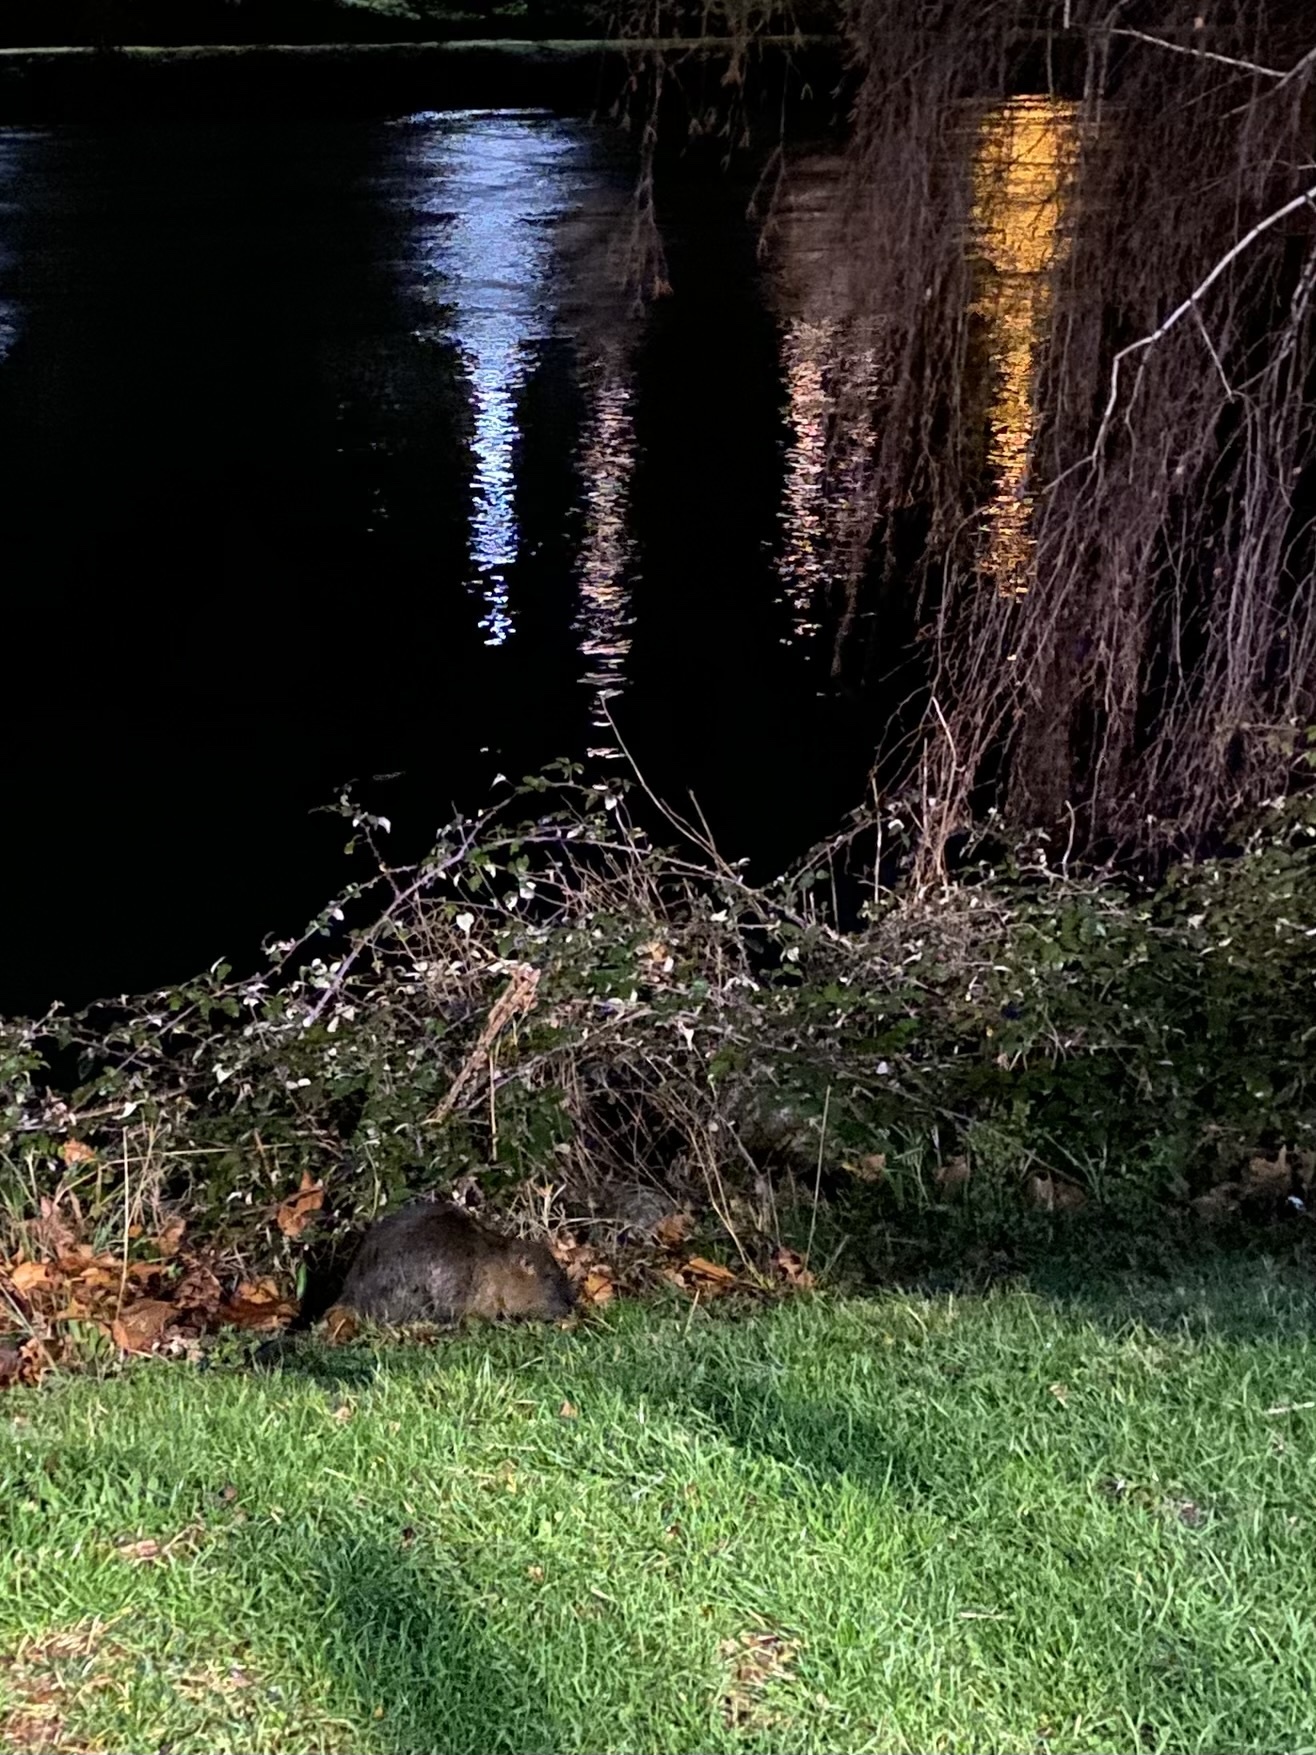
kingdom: Animalia
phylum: Chordata
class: Mammalia
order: Rodentia
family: Myocastoridae
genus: Myocastor
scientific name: Myocastor coypus
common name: Coypu
